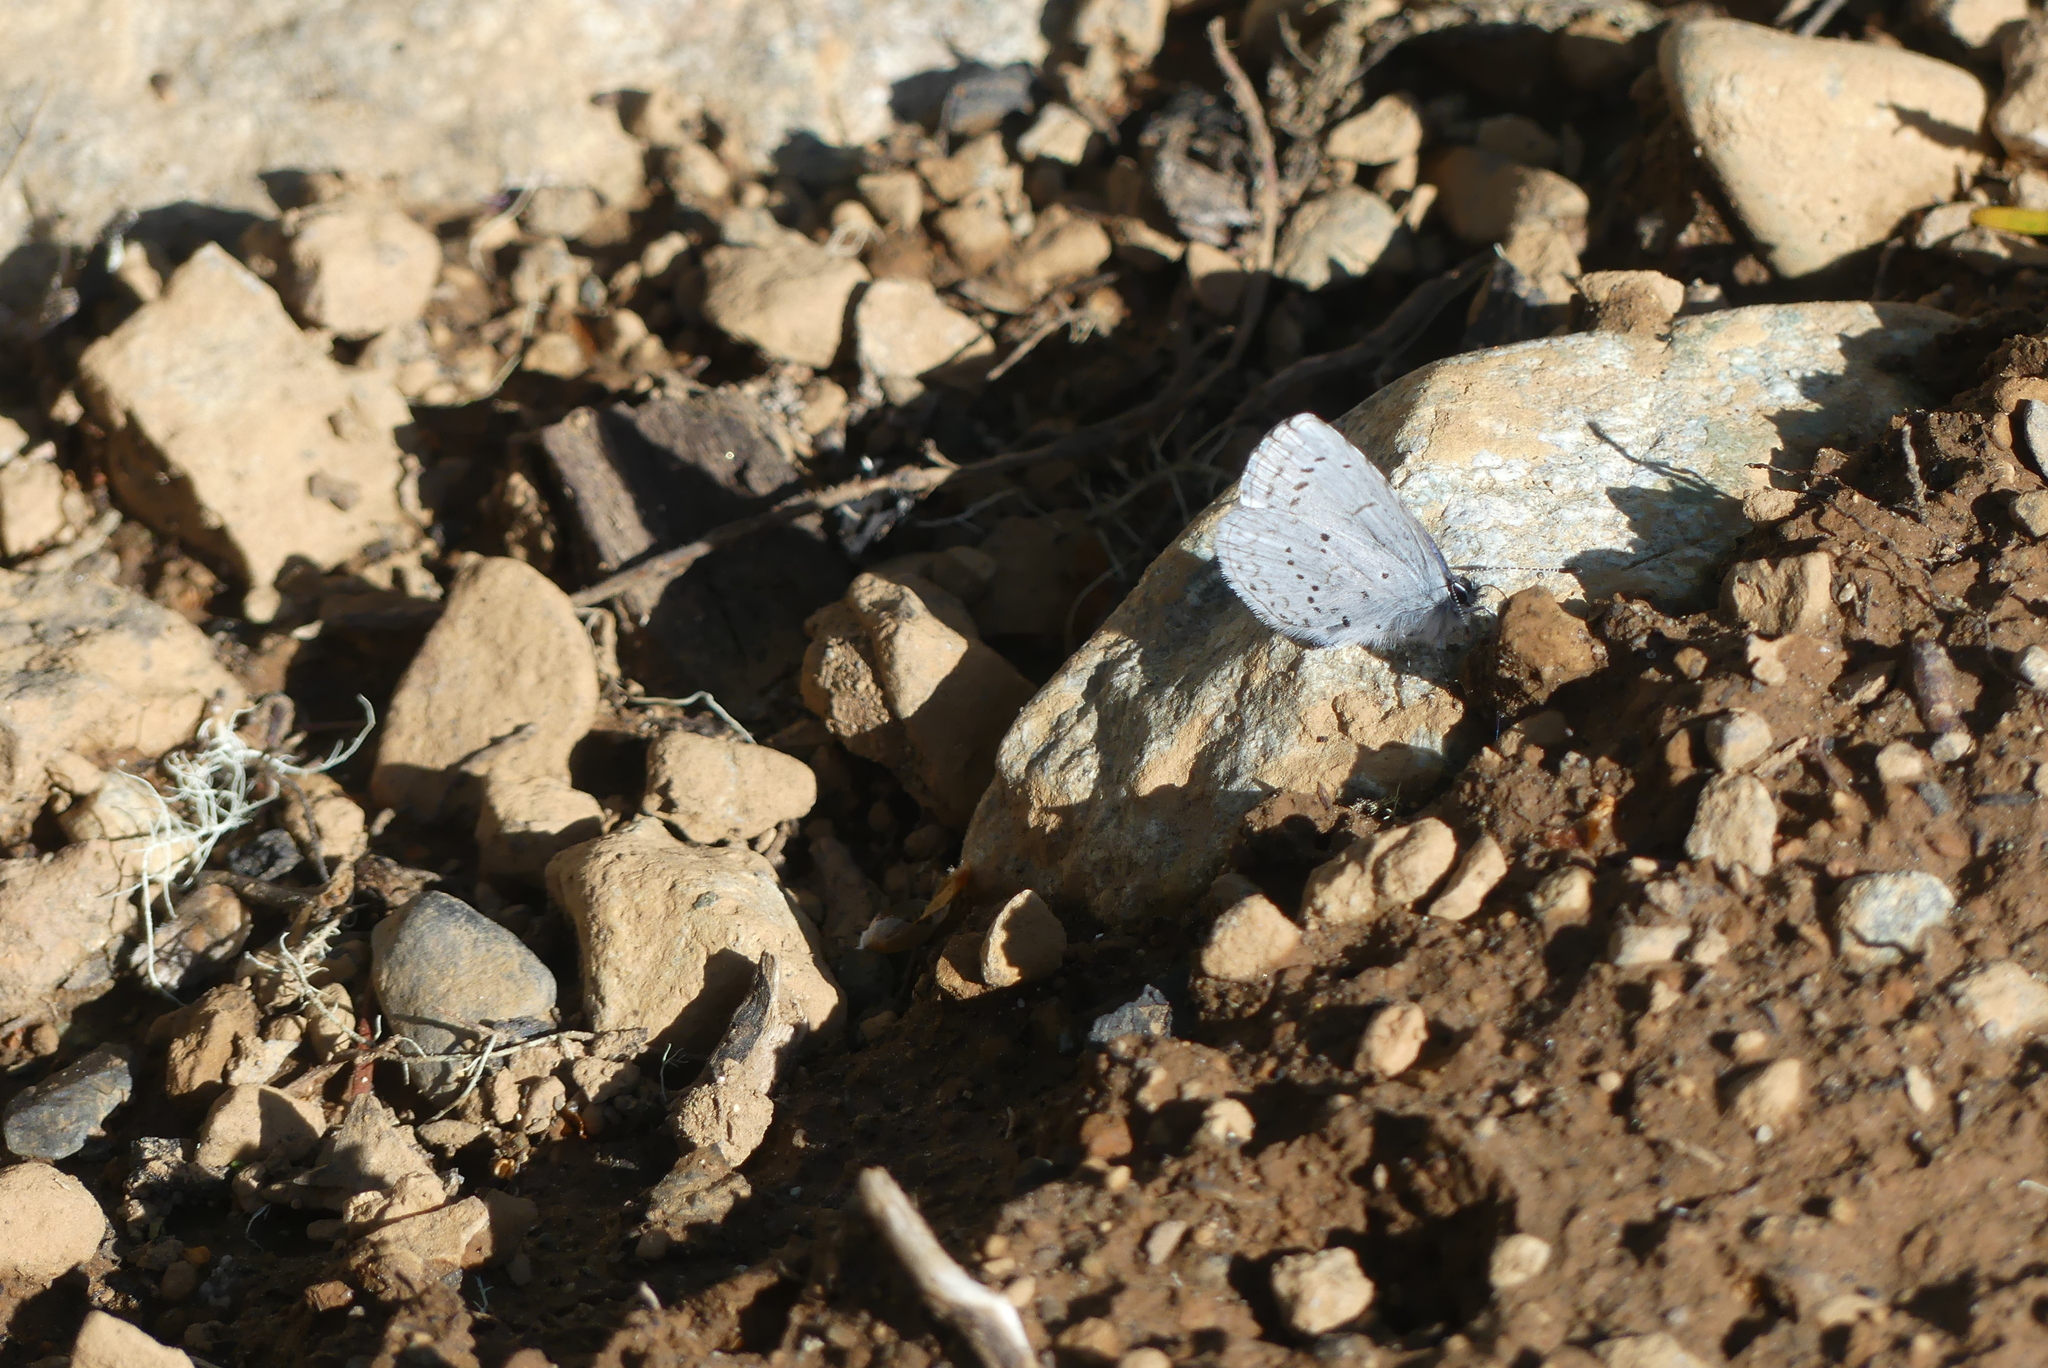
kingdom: Animalia
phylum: Arthropoda
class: Insecta
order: Lepidoptera
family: Lycaenidae
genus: Celastrina
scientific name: Celastrina ladon
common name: Spring azure
